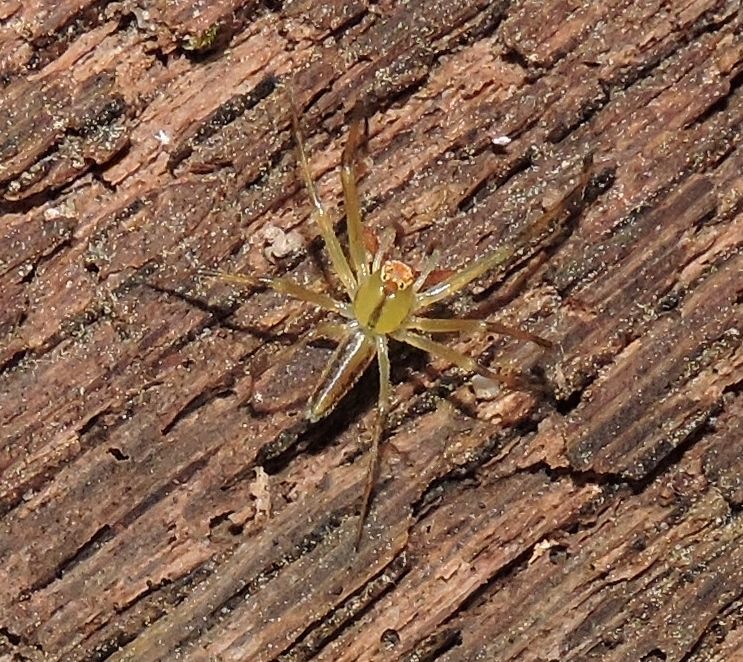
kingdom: Animalia
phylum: Arthropoda
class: Arachnida
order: Araneae
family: Salticidae
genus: Lyssomanes
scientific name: Lyssomanes viridis
